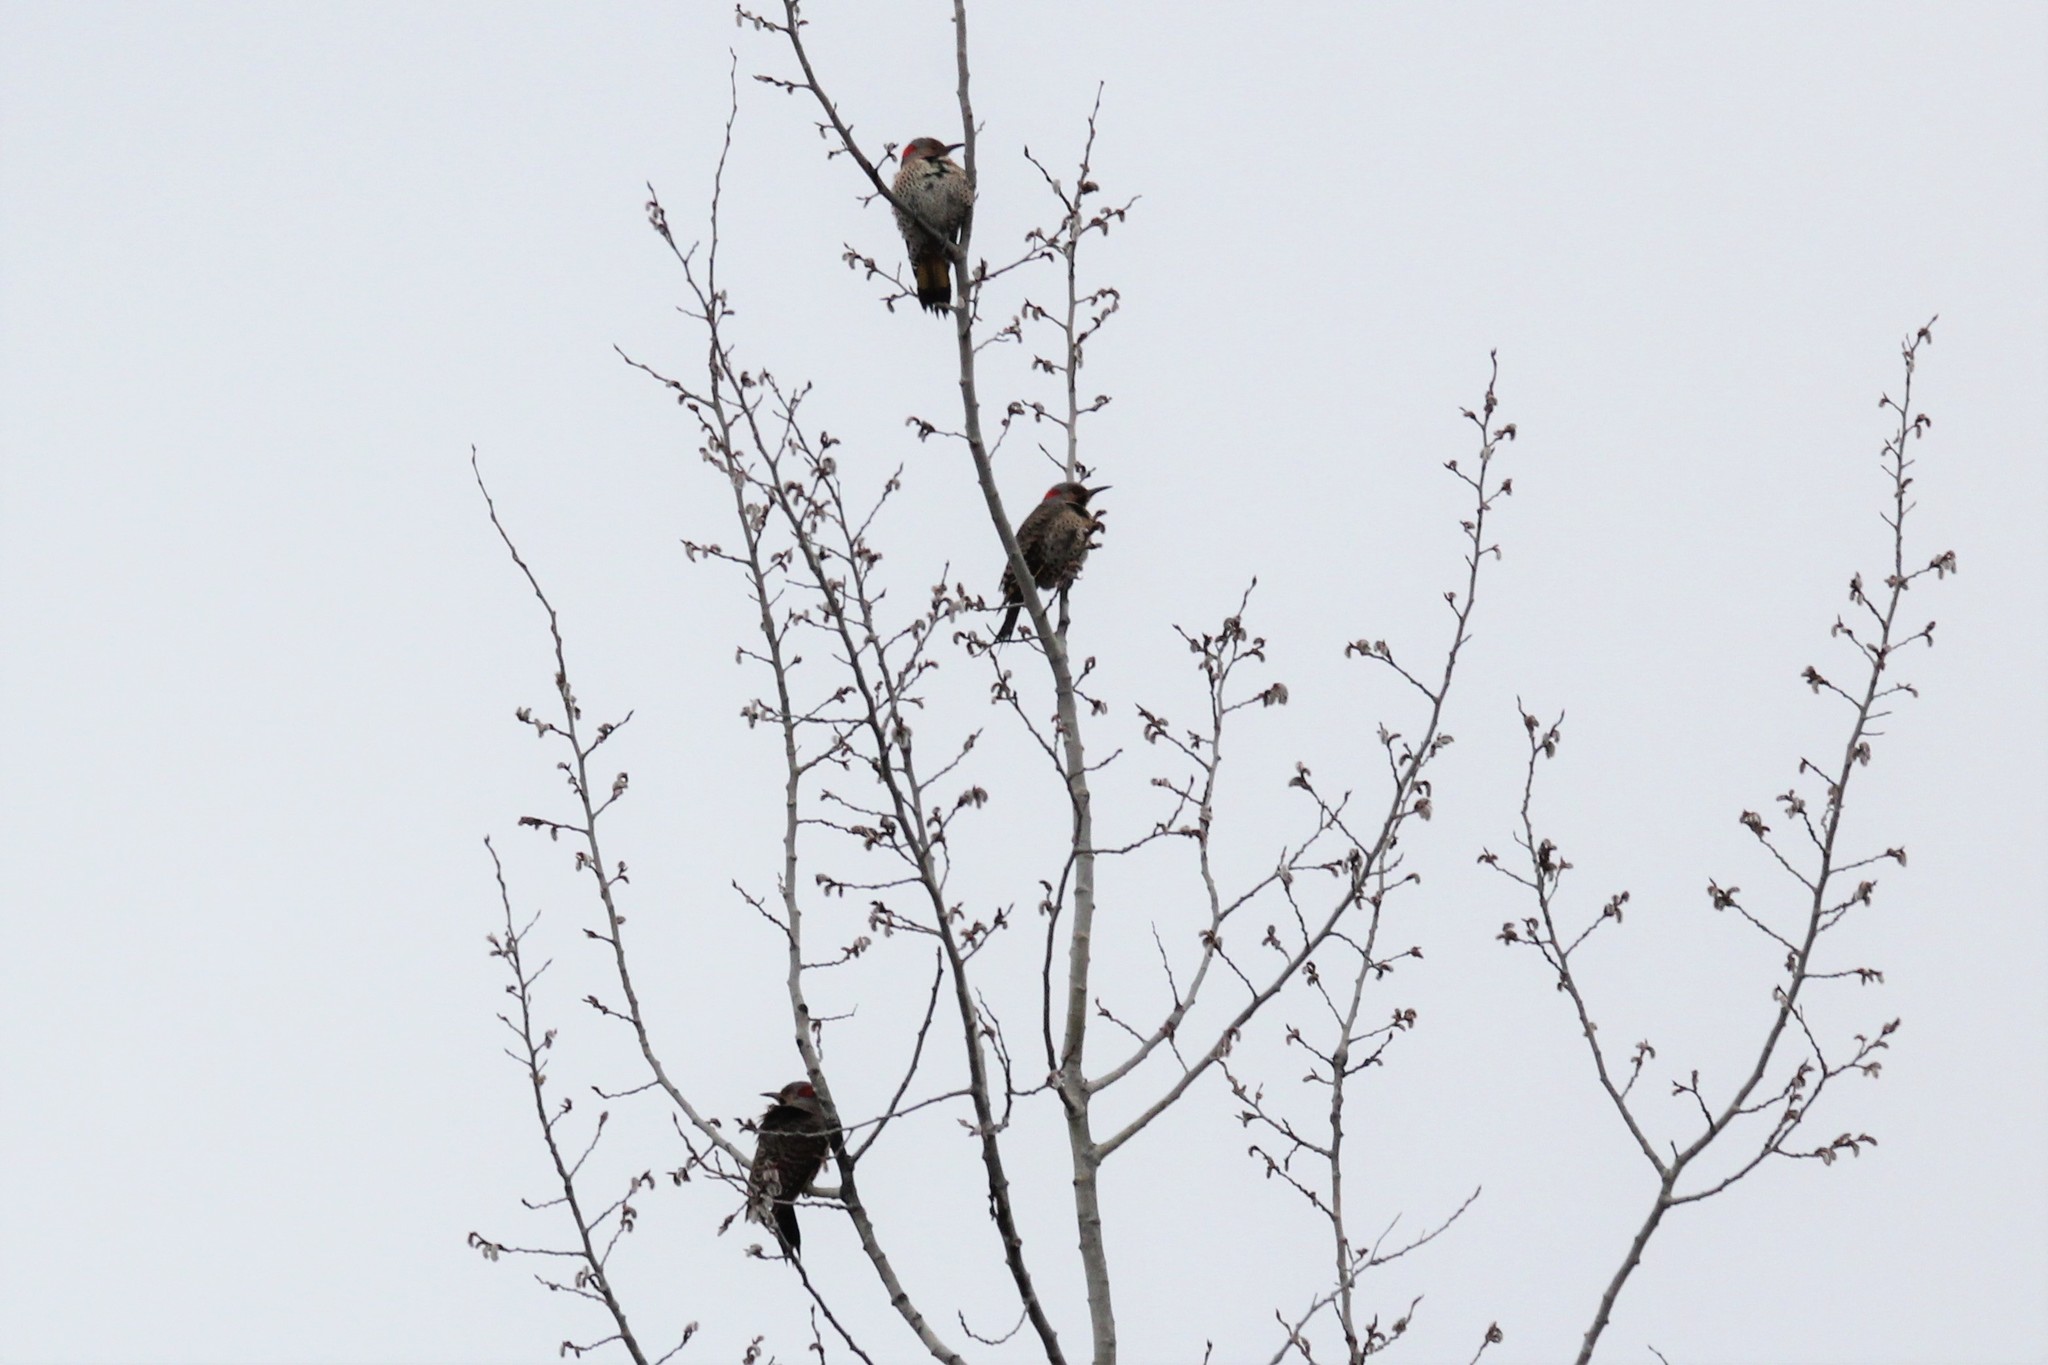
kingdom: Animalia
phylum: Chordata
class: Aves
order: Piciformes
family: Picidae
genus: Colaptes
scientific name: Colaptes auratus
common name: Northern flicker
